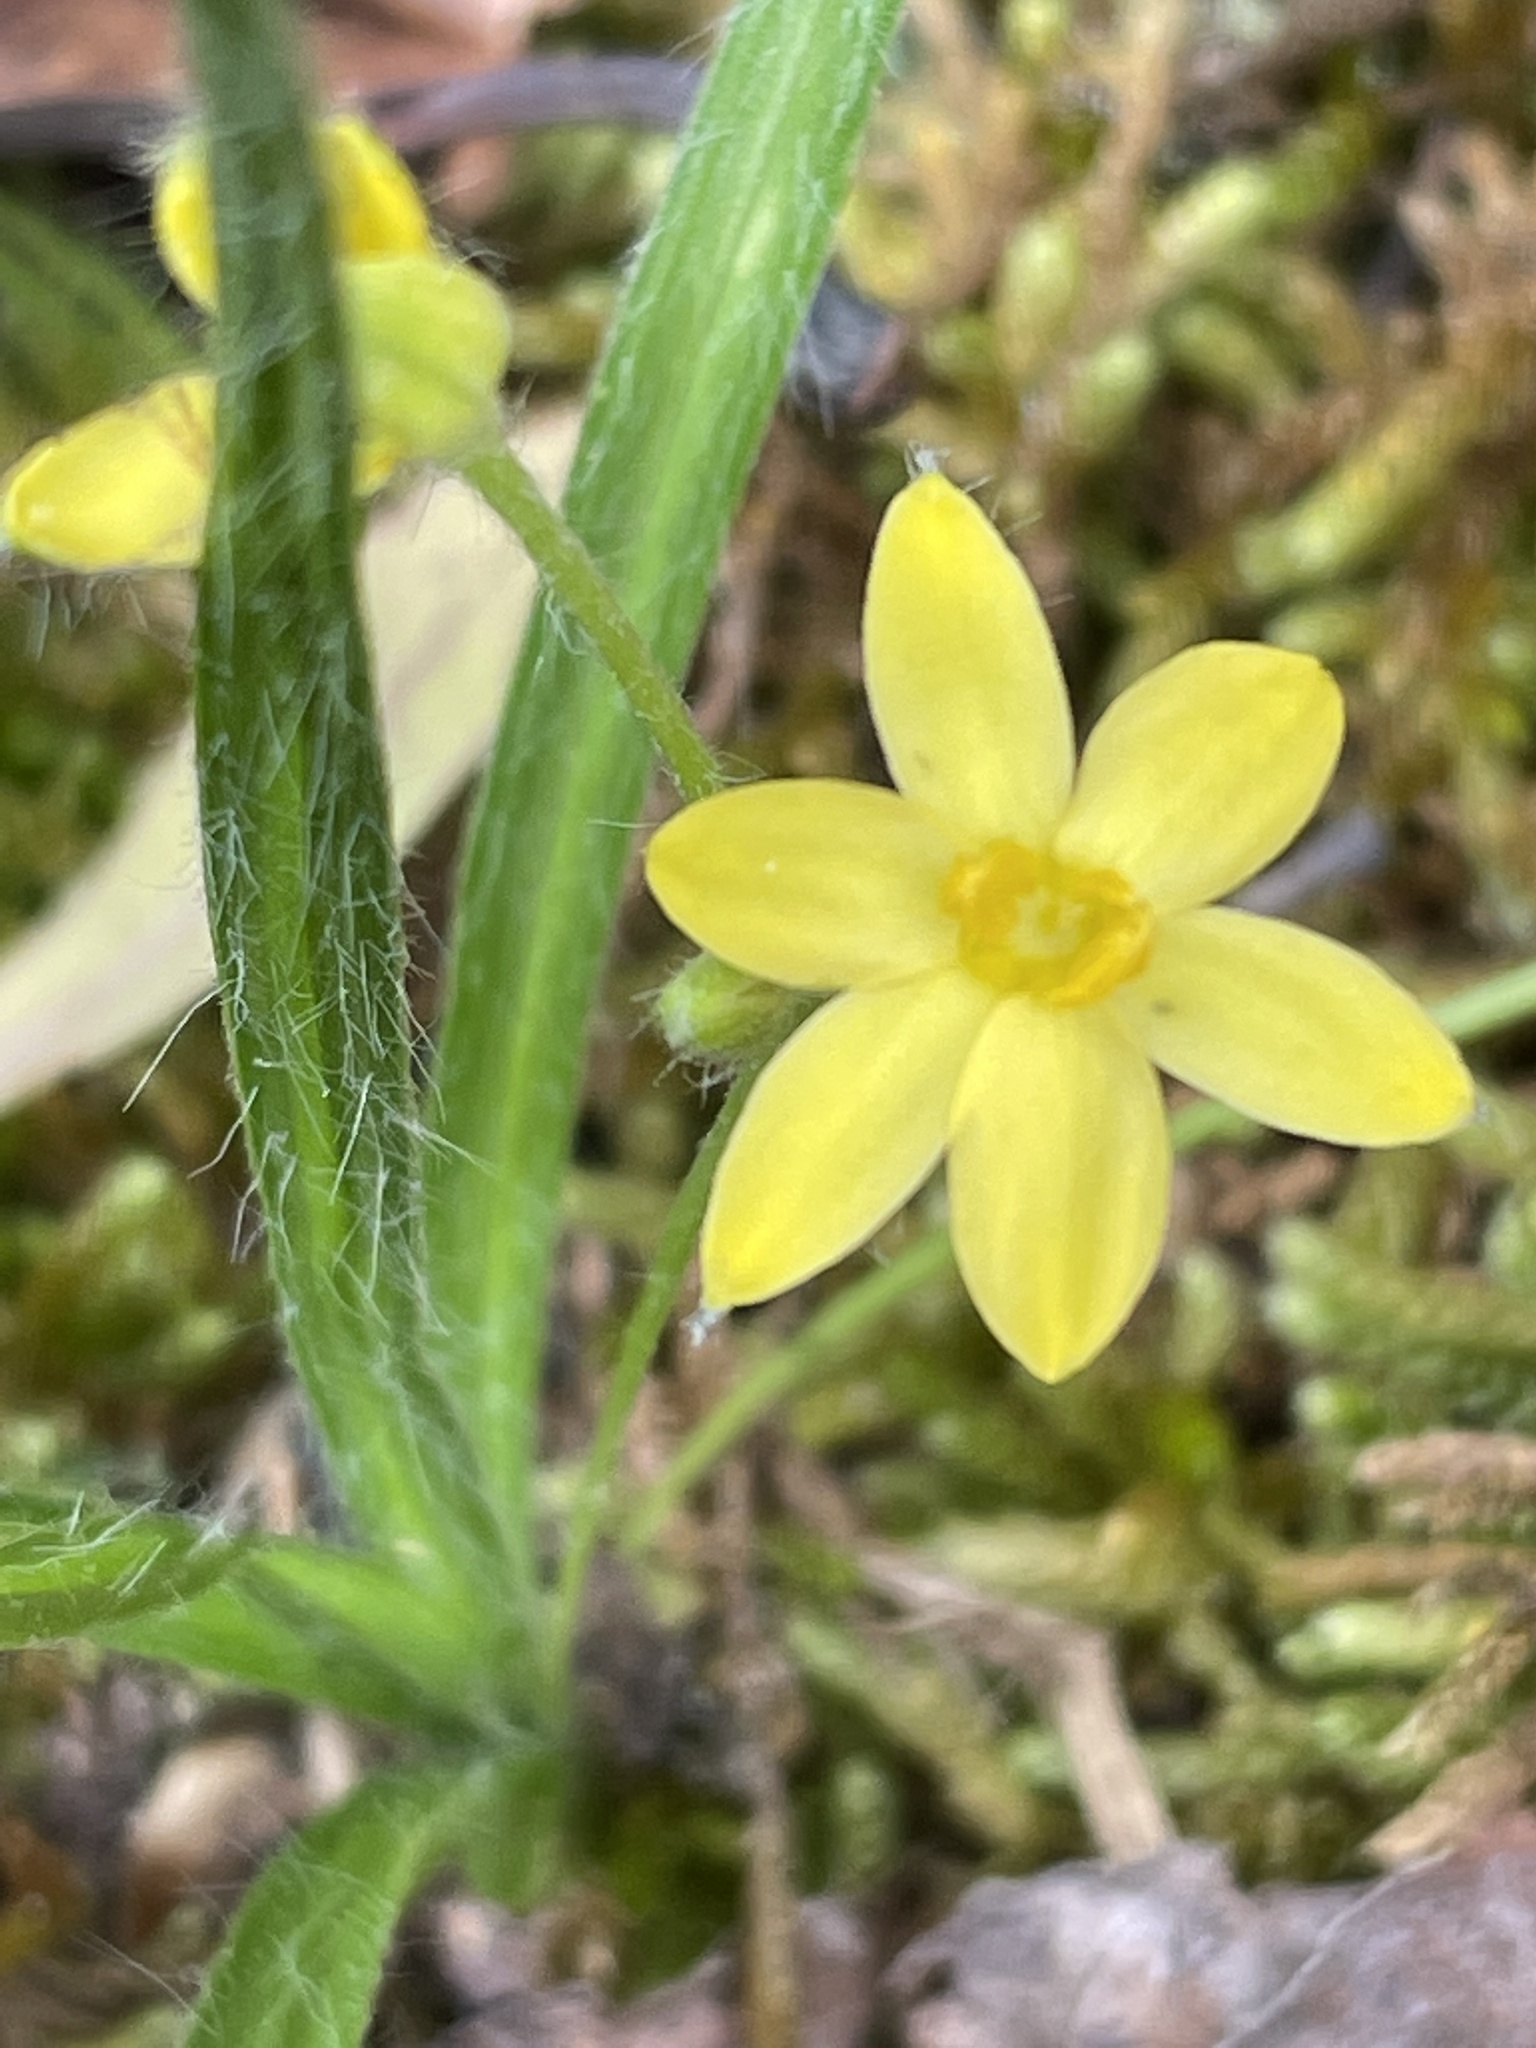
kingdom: Plantae
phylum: Tracheophyta
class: Liliopsida
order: Asparagales
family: Hypoxidaceae
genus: Hypoxis
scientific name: Hypoxis hirsuta
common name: Common goldstar
